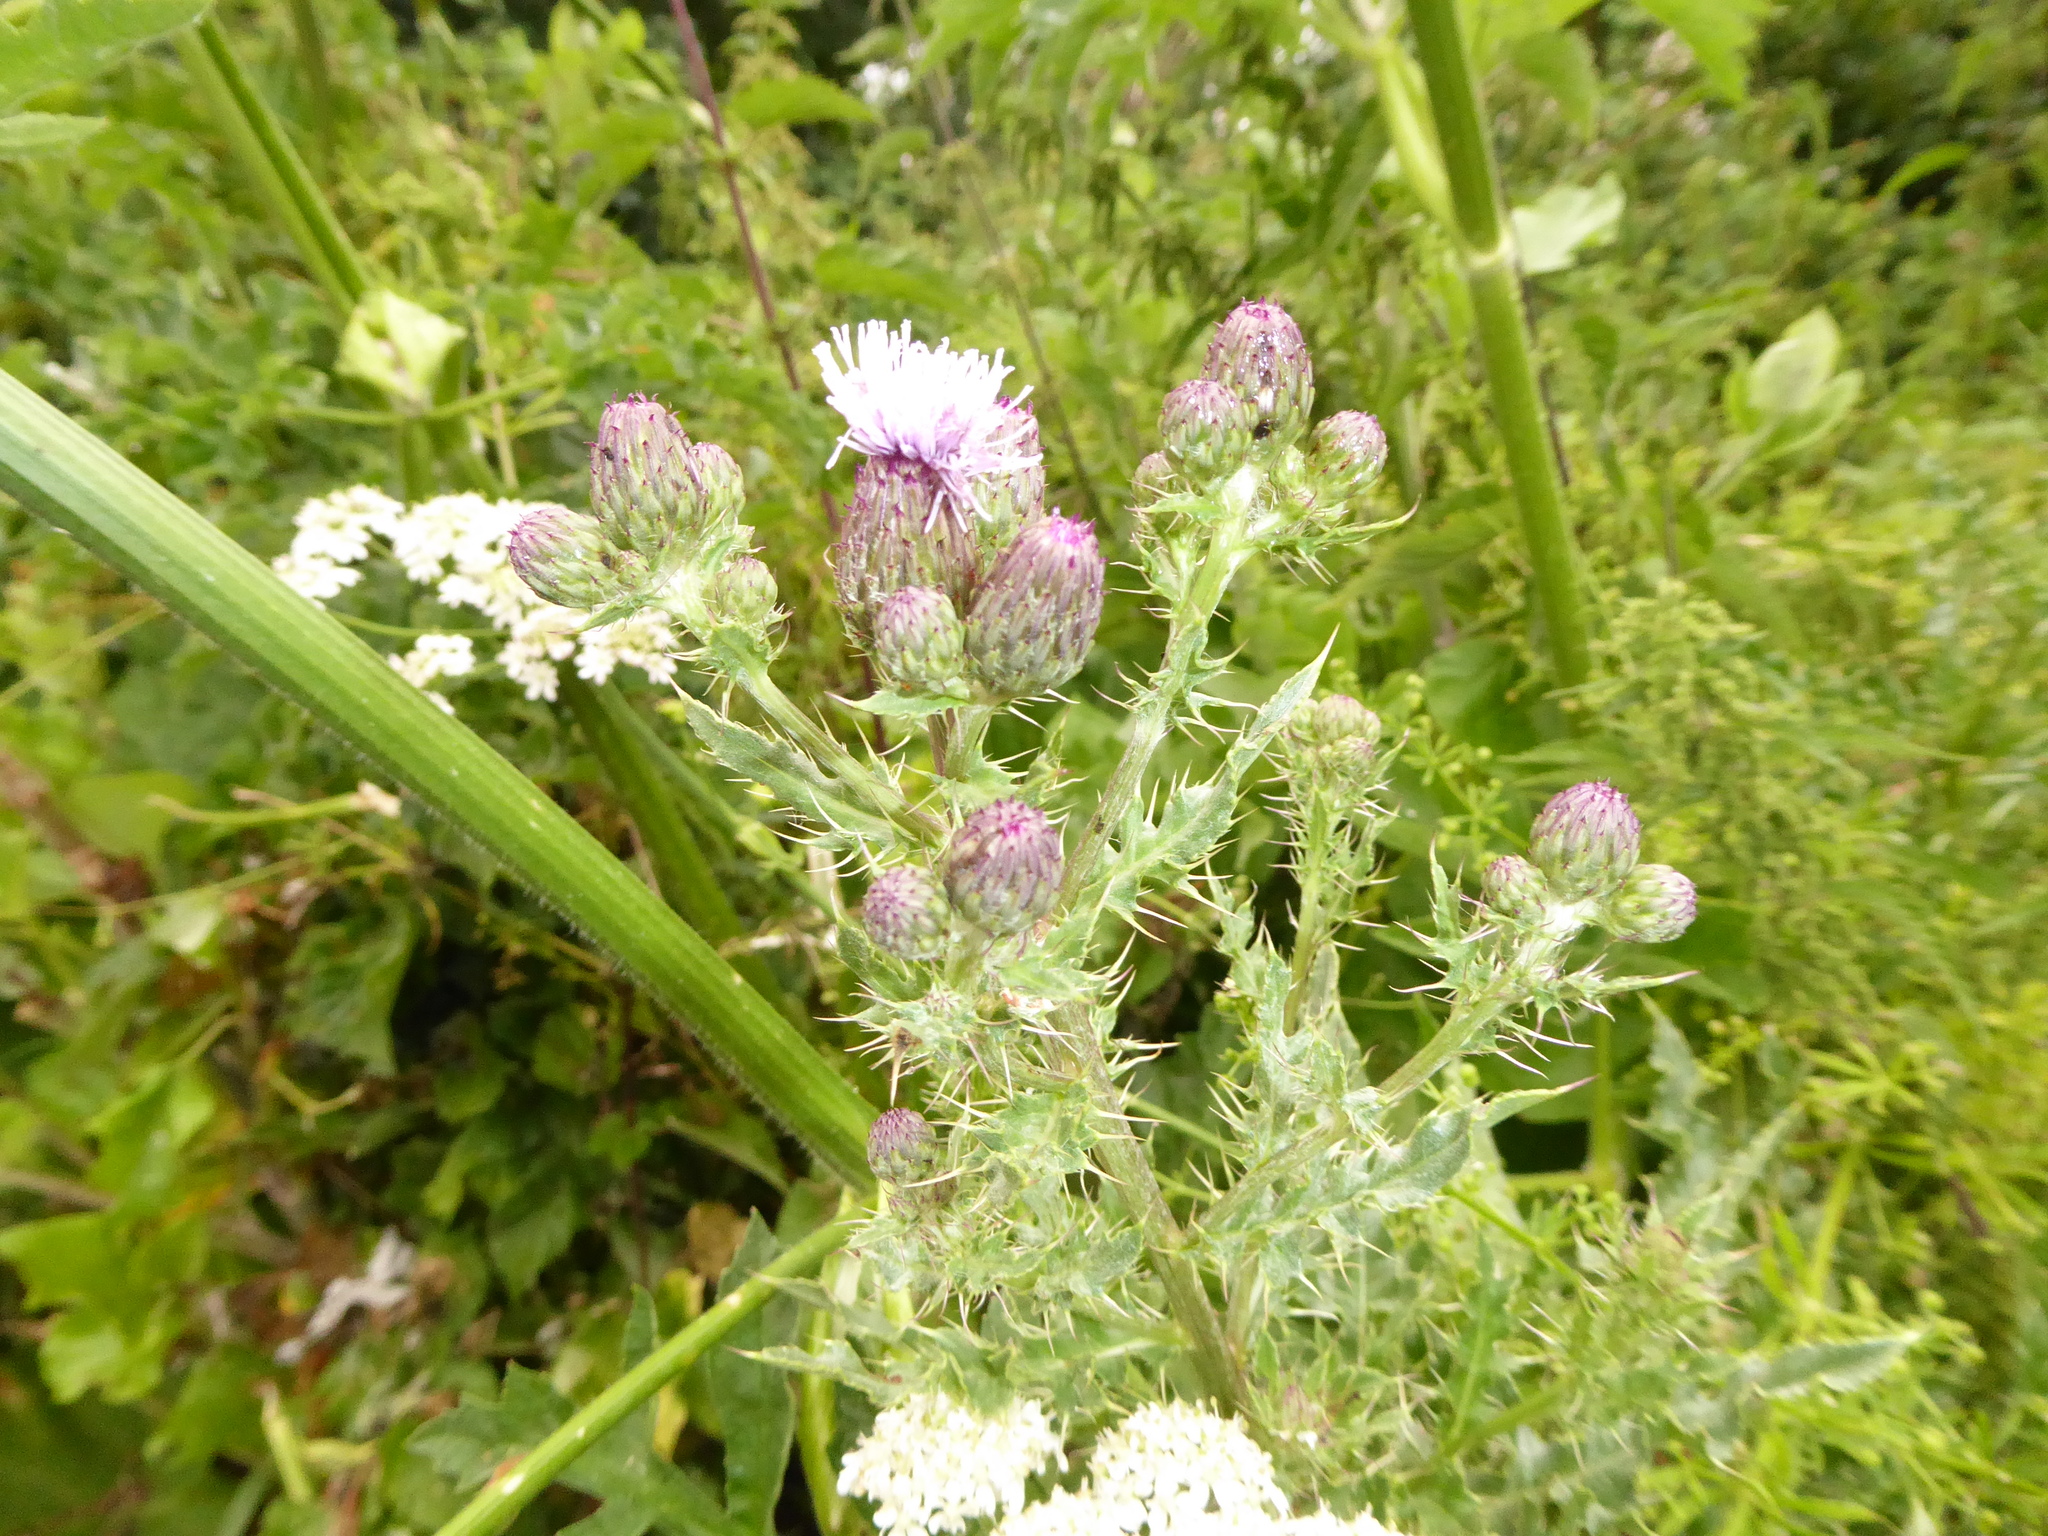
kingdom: Plantae
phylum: Tracheophyta
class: Magnoliopsida
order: Asterales
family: Asteraceae
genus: Cirsium
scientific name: Cirsium arvense
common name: Creeping thistle
